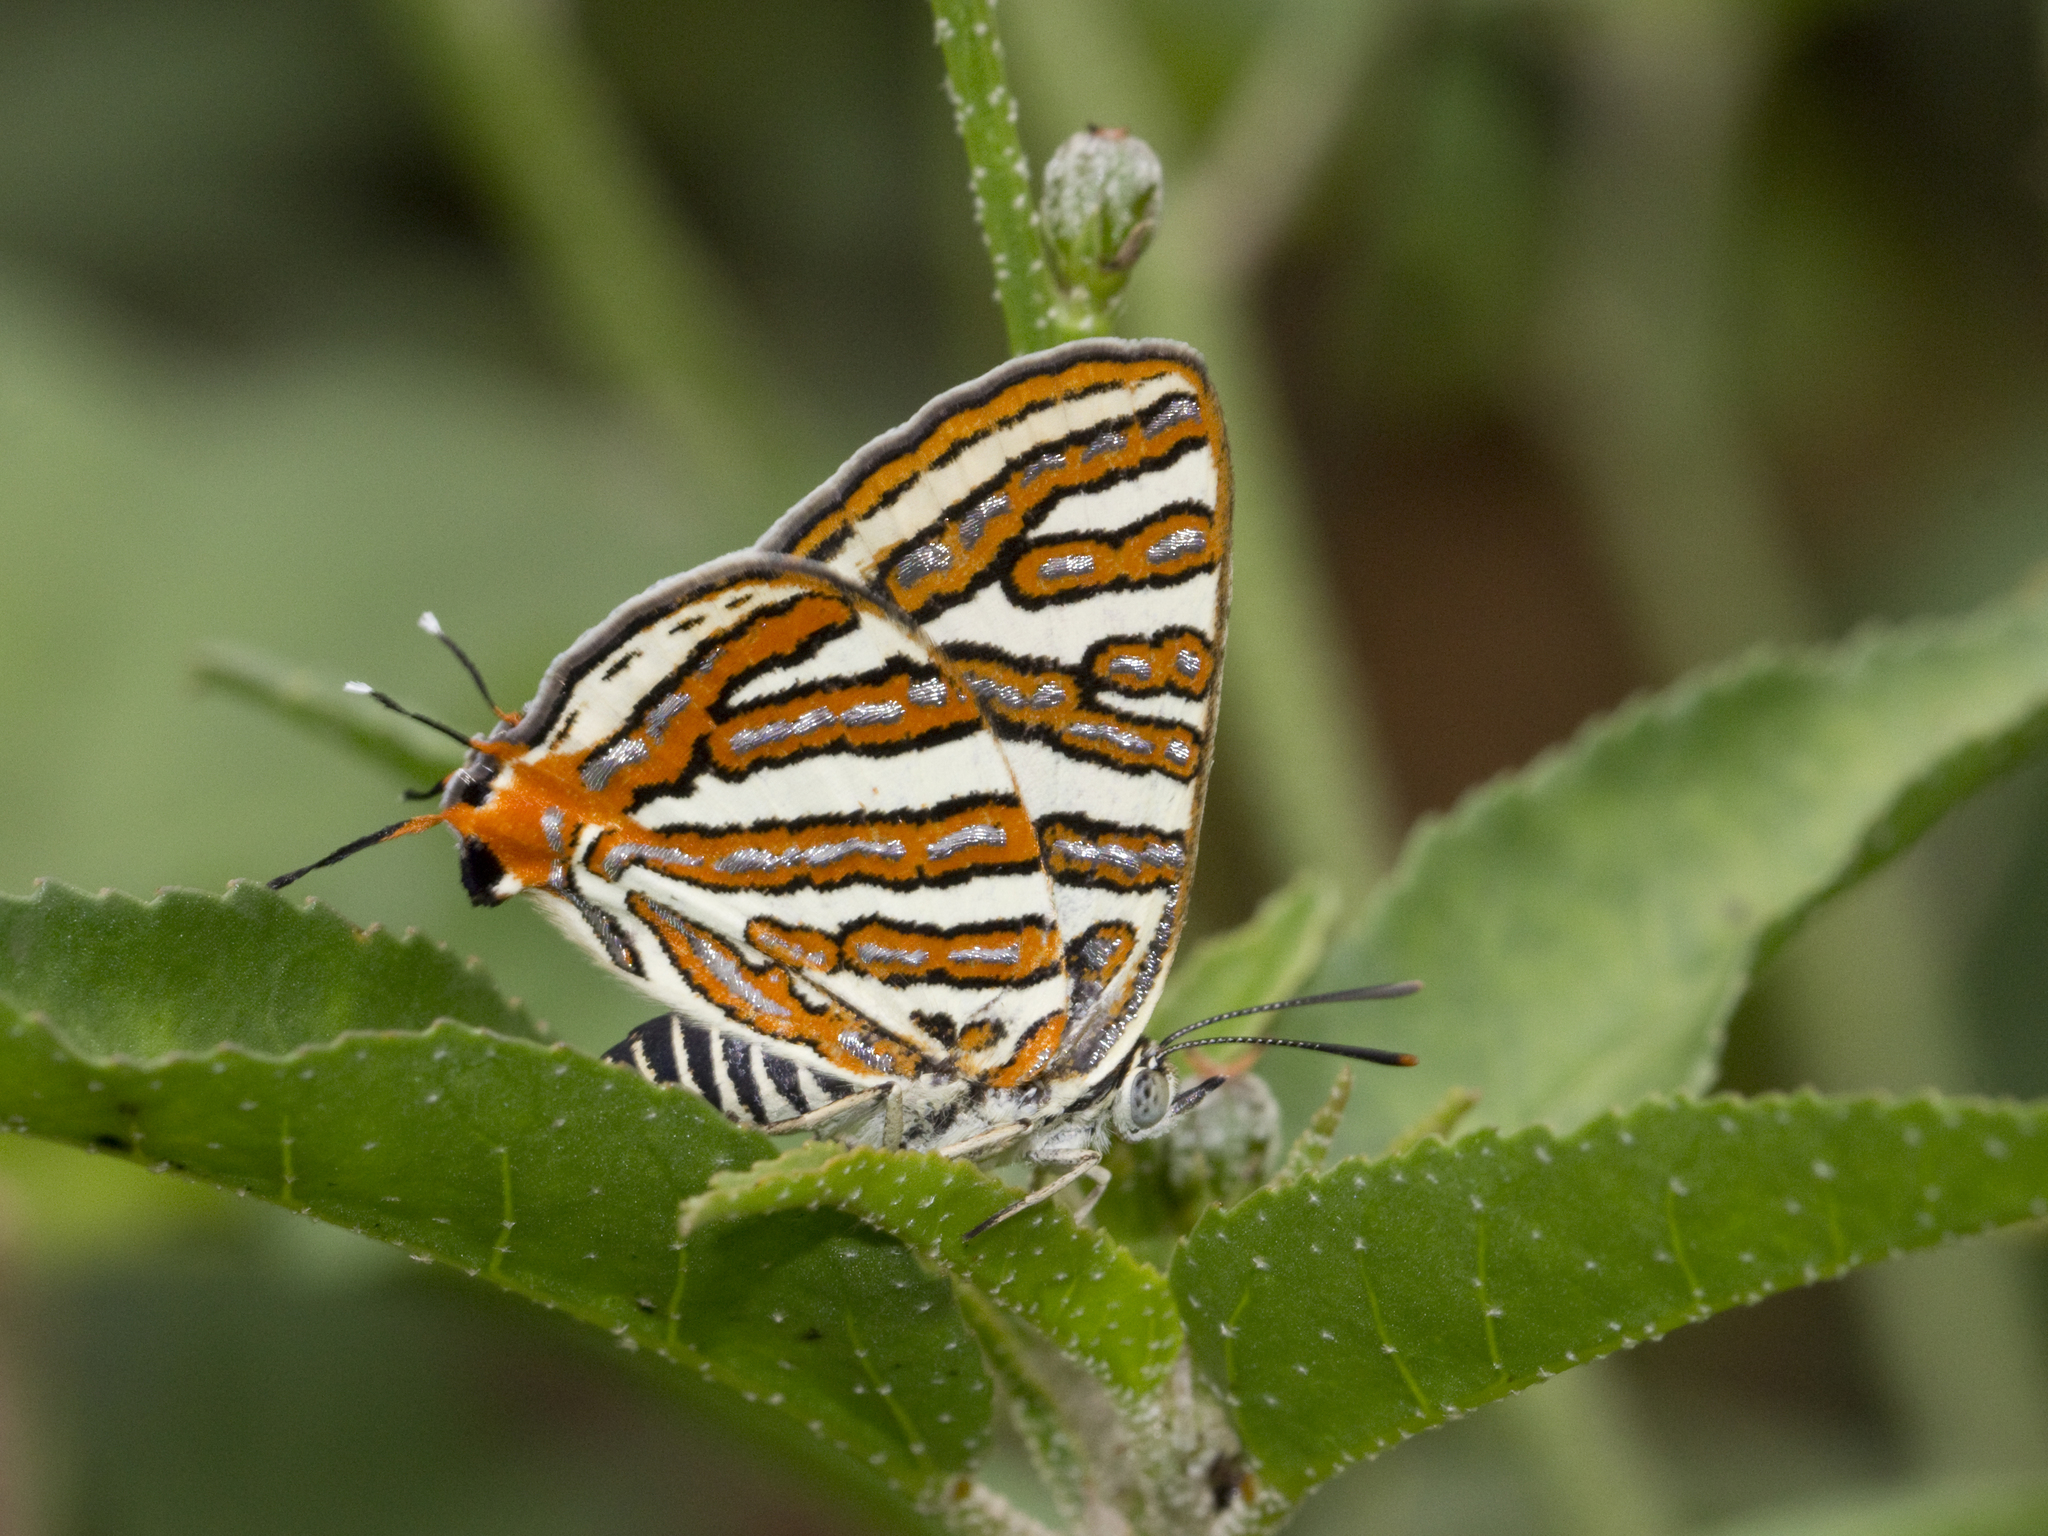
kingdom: Animalia
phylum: Arthropoda
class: Insecta
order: Lepidoptera
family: Lycaenidae
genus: Cigaritis
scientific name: Cigaritis vulcanus
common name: Common silverline
